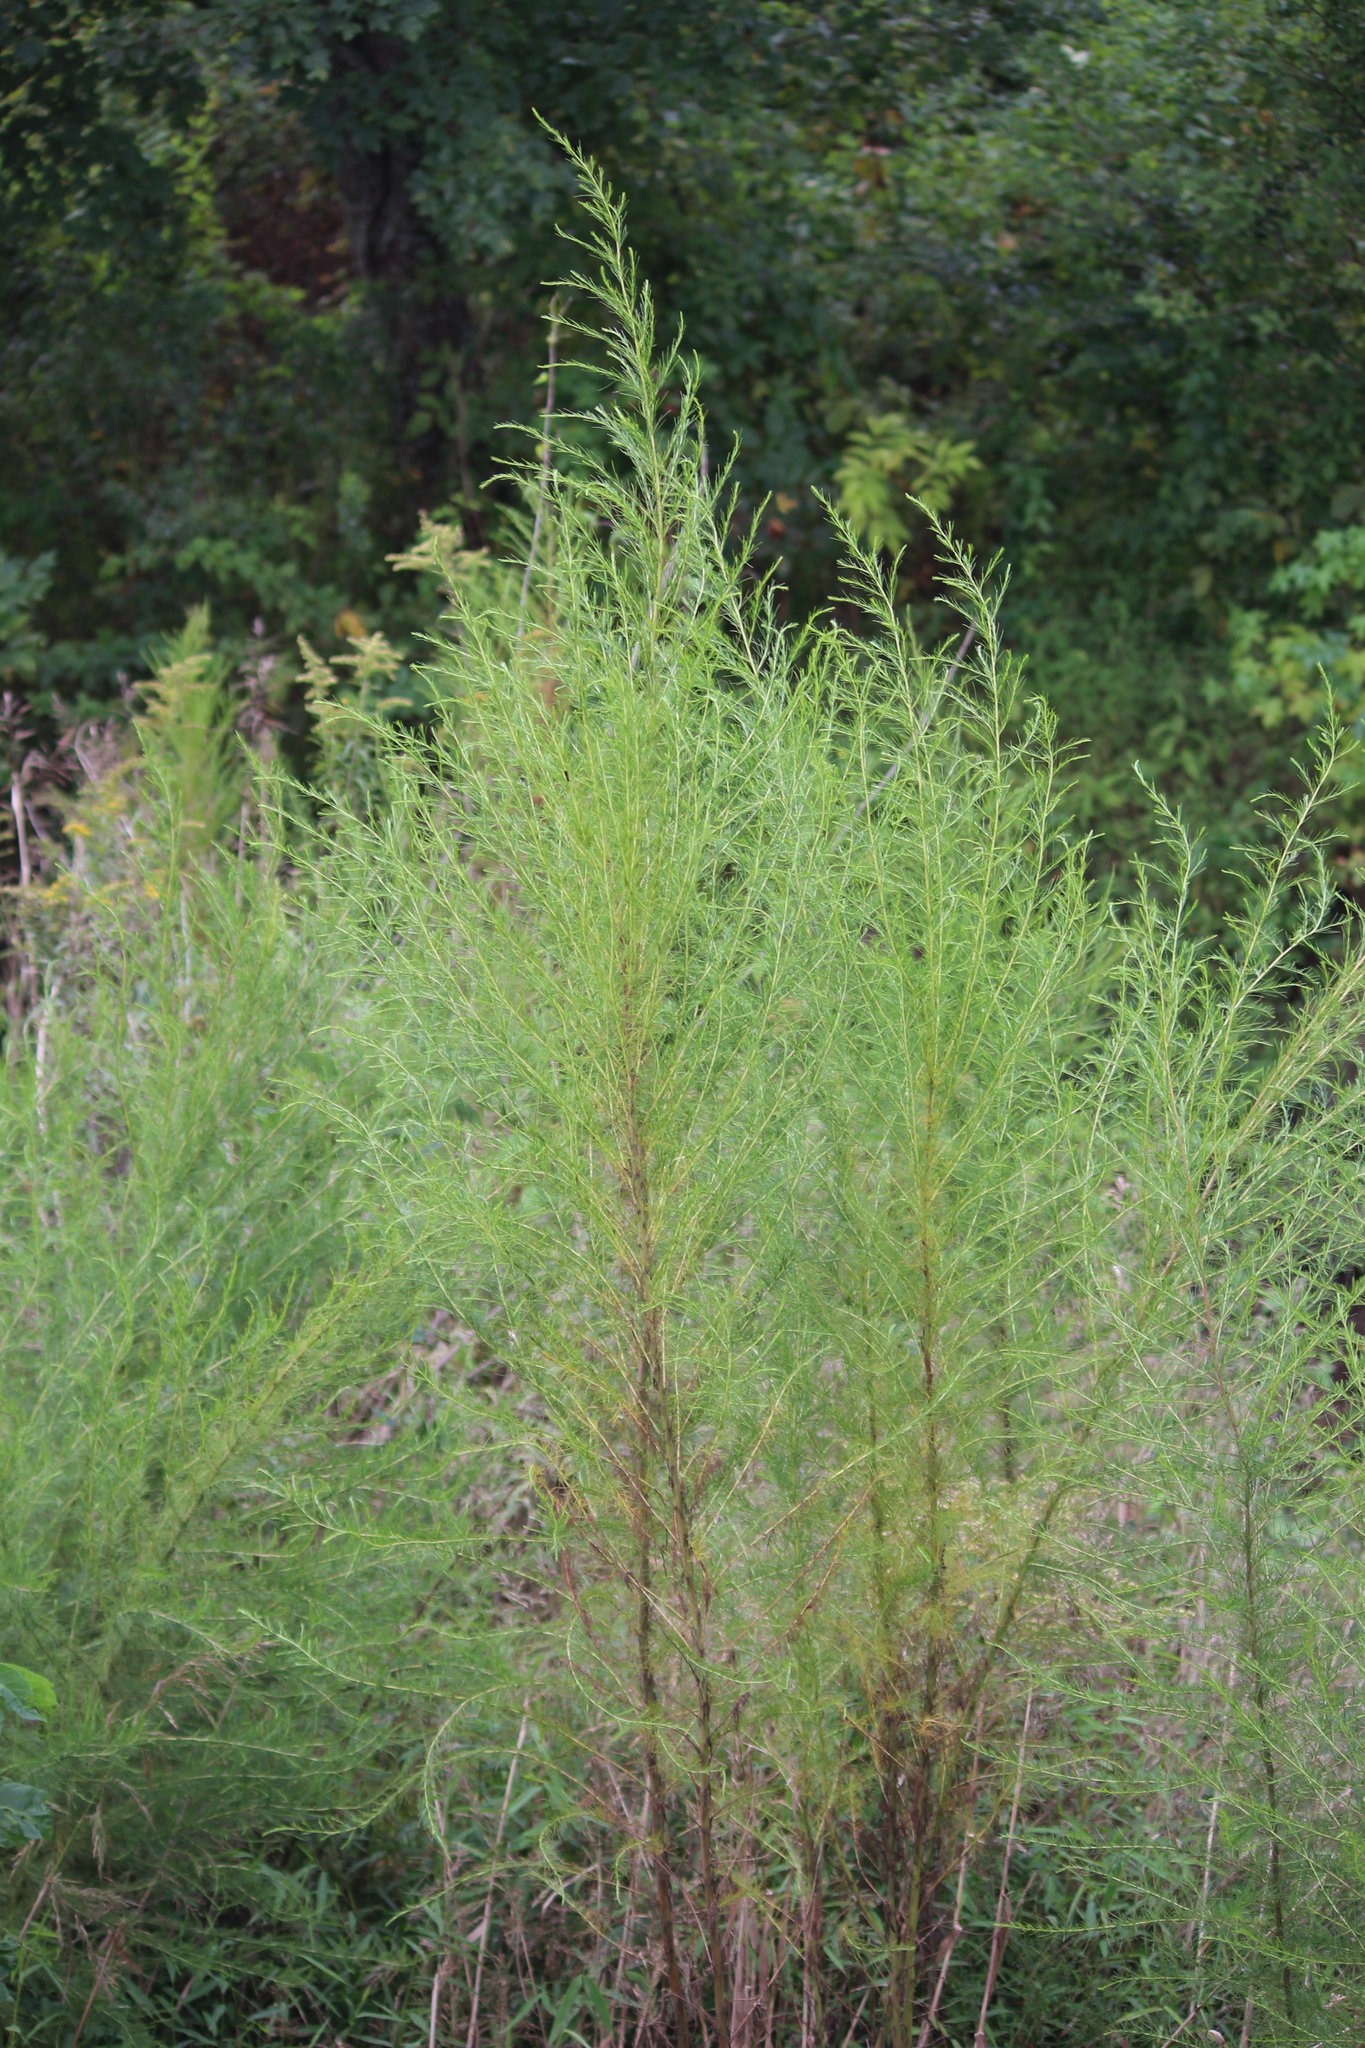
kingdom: Plantae
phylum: Tracheophyta
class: Magnoliopsida
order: Asterales
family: Asteraceae
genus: Eupatorium
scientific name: Eupatorium capillifolium
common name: Dog-fennel
